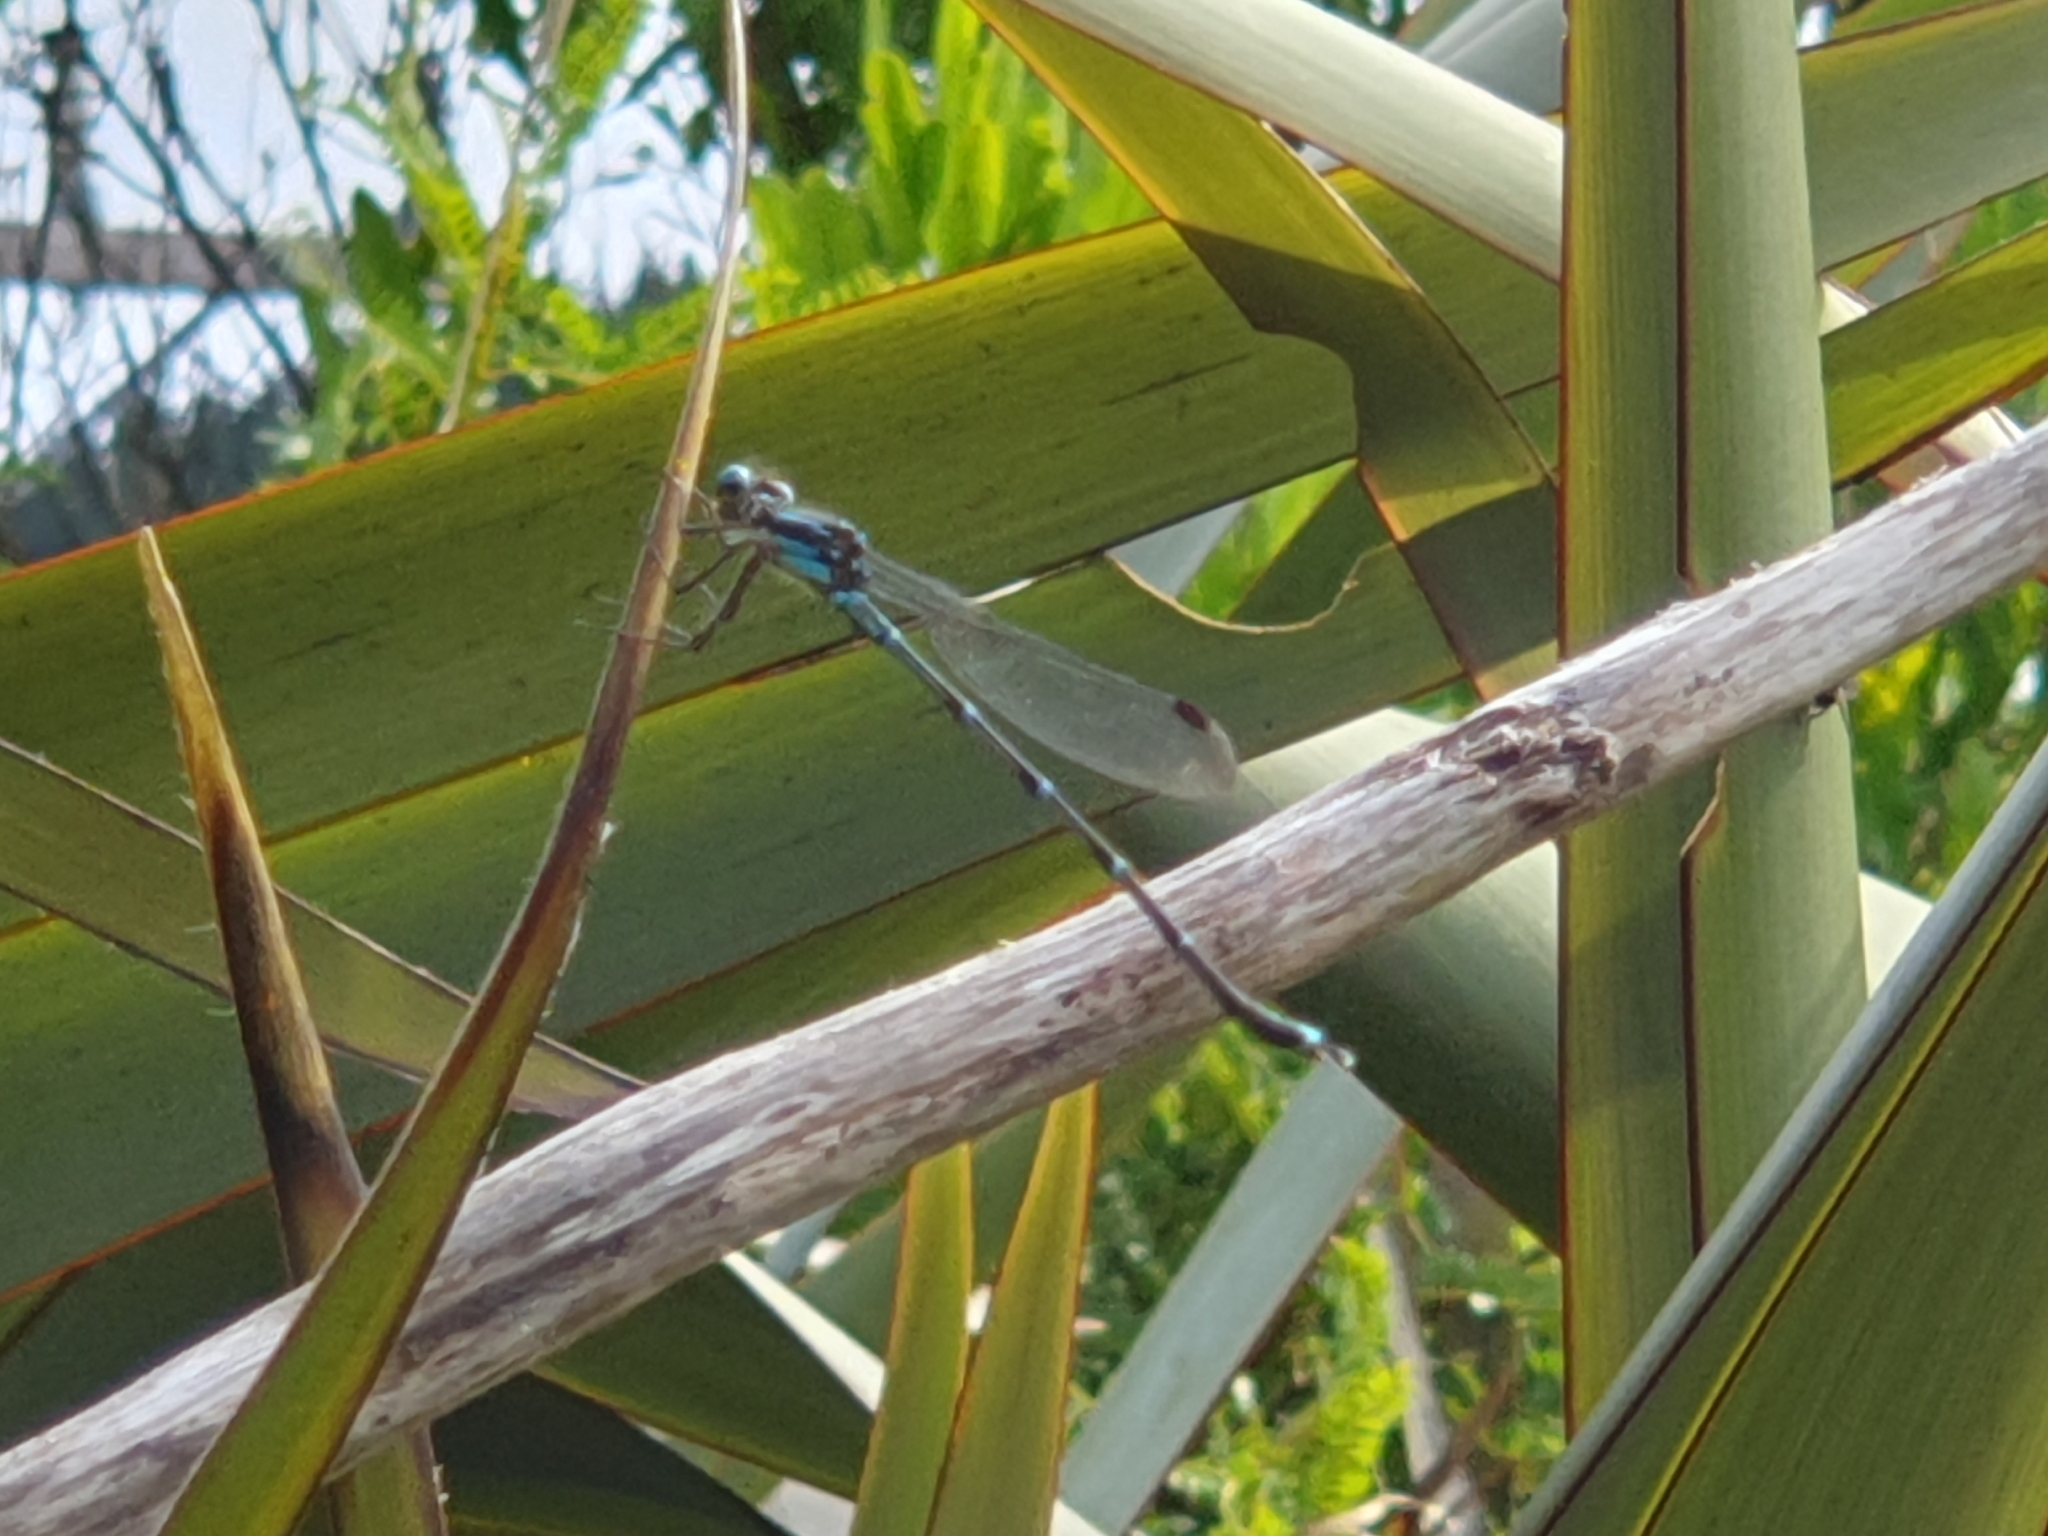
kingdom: Animalia
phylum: Arthropoda
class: Insecta
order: Odonata
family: Lestidae
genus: Austrolestes
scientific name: Austrolestes colensonis
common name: Blue damselfly
